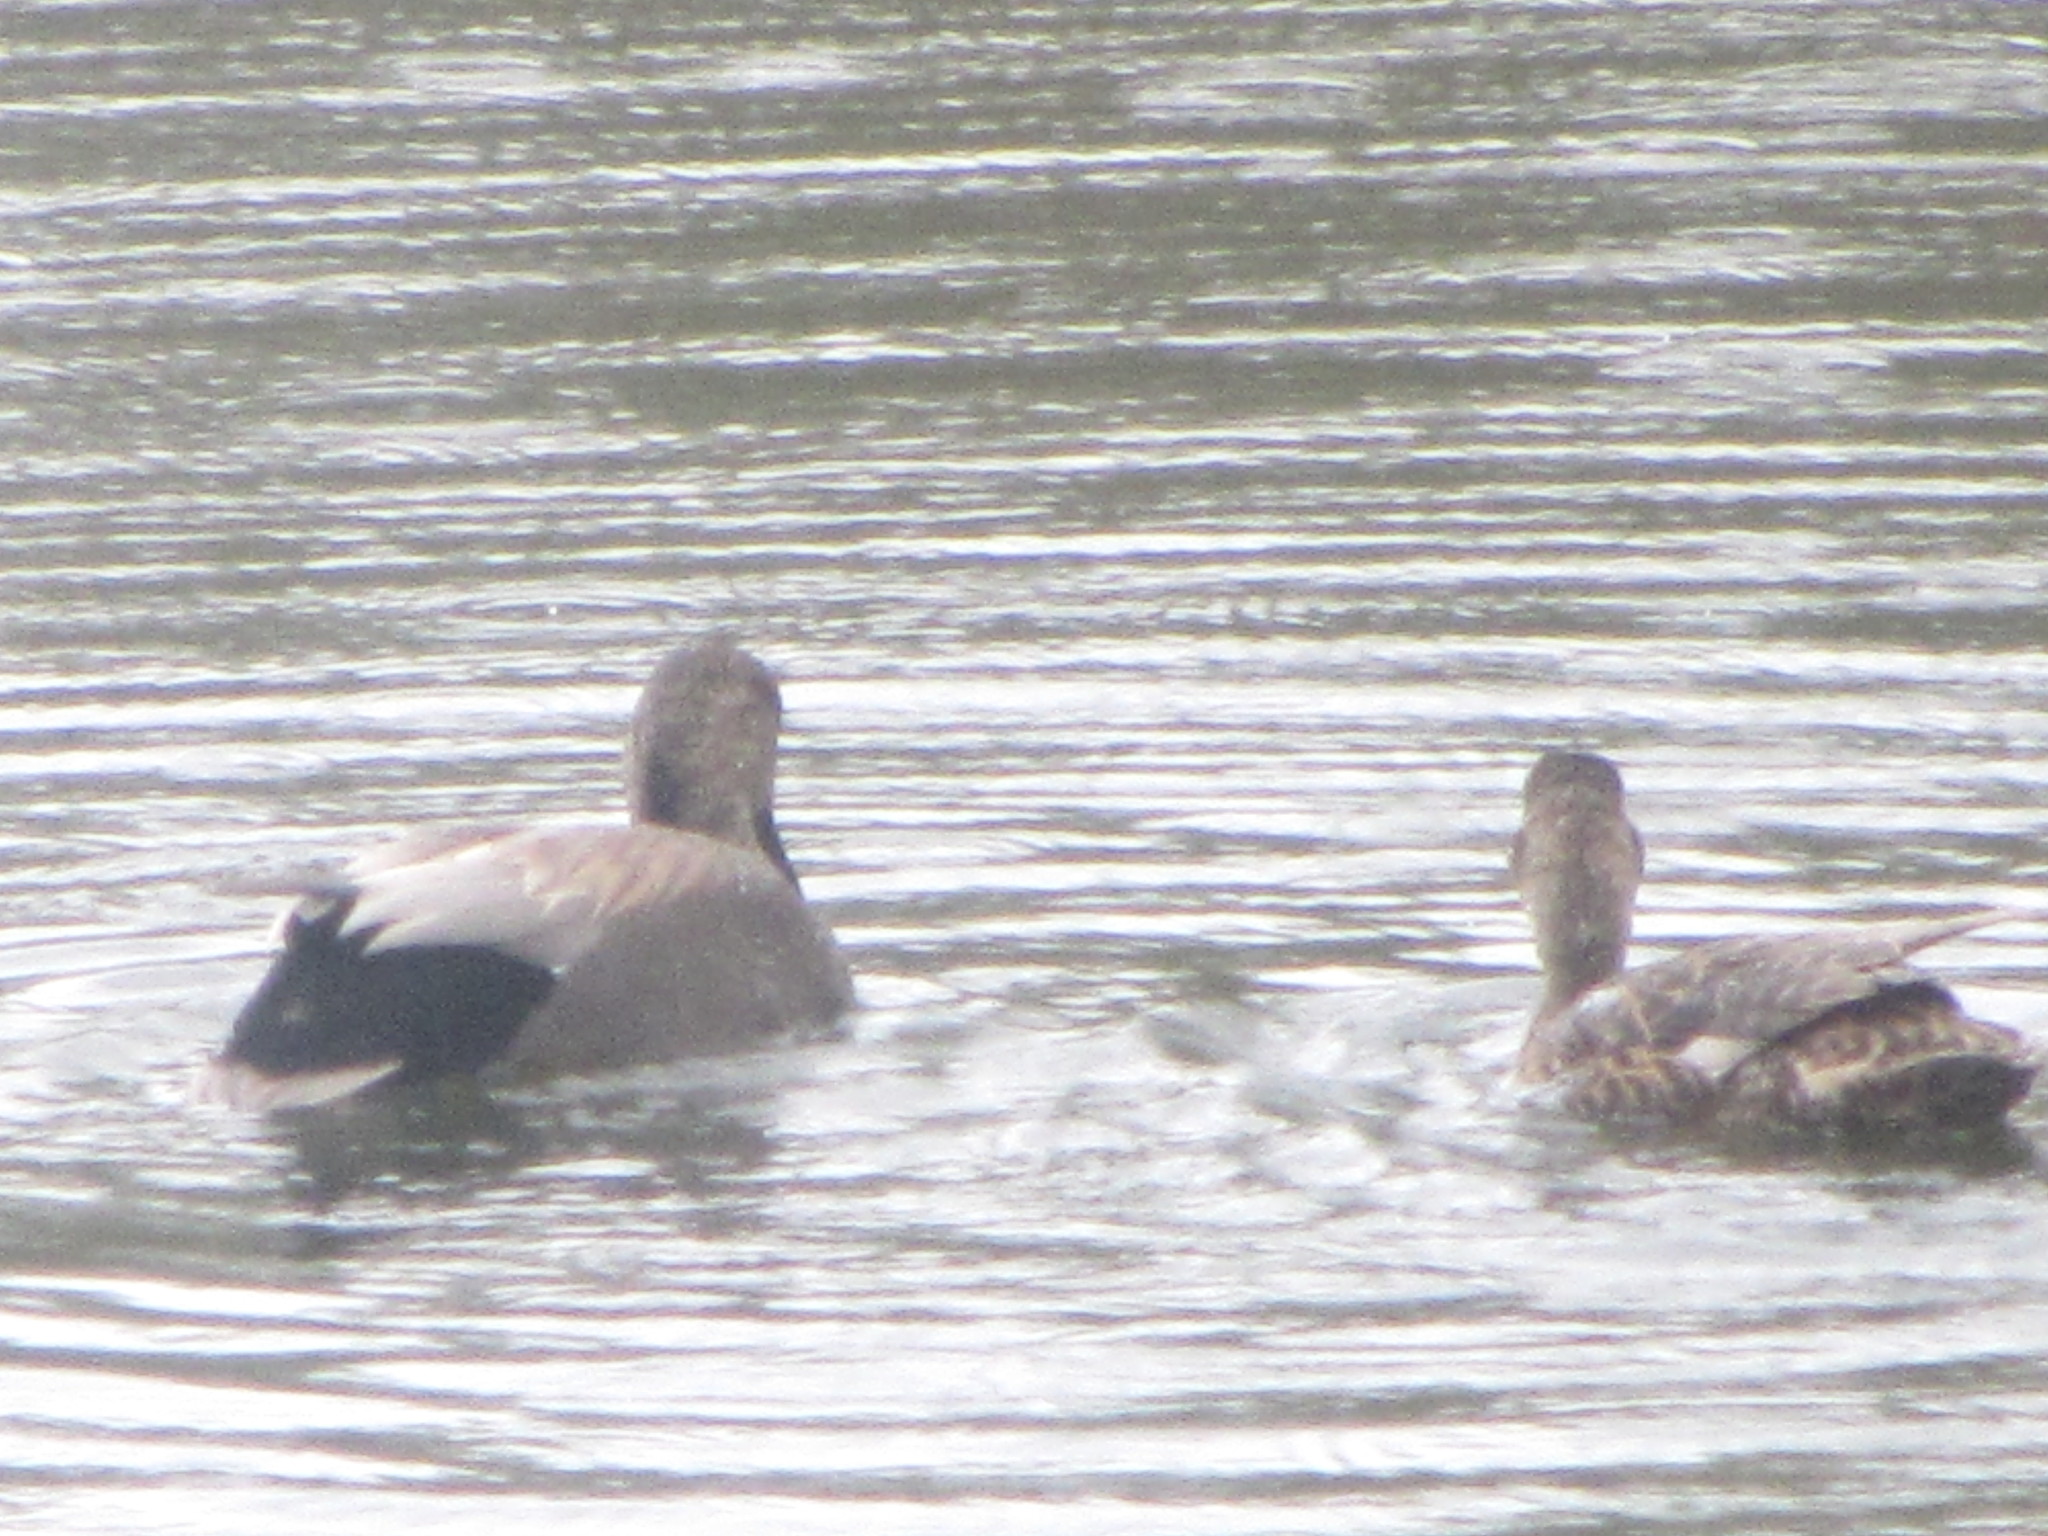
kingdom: Animalia
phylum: Chordata
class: Aves
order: Anseriformes
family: Anatidae
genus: Mareca
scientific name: Mareca strepera
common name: Gadwall
